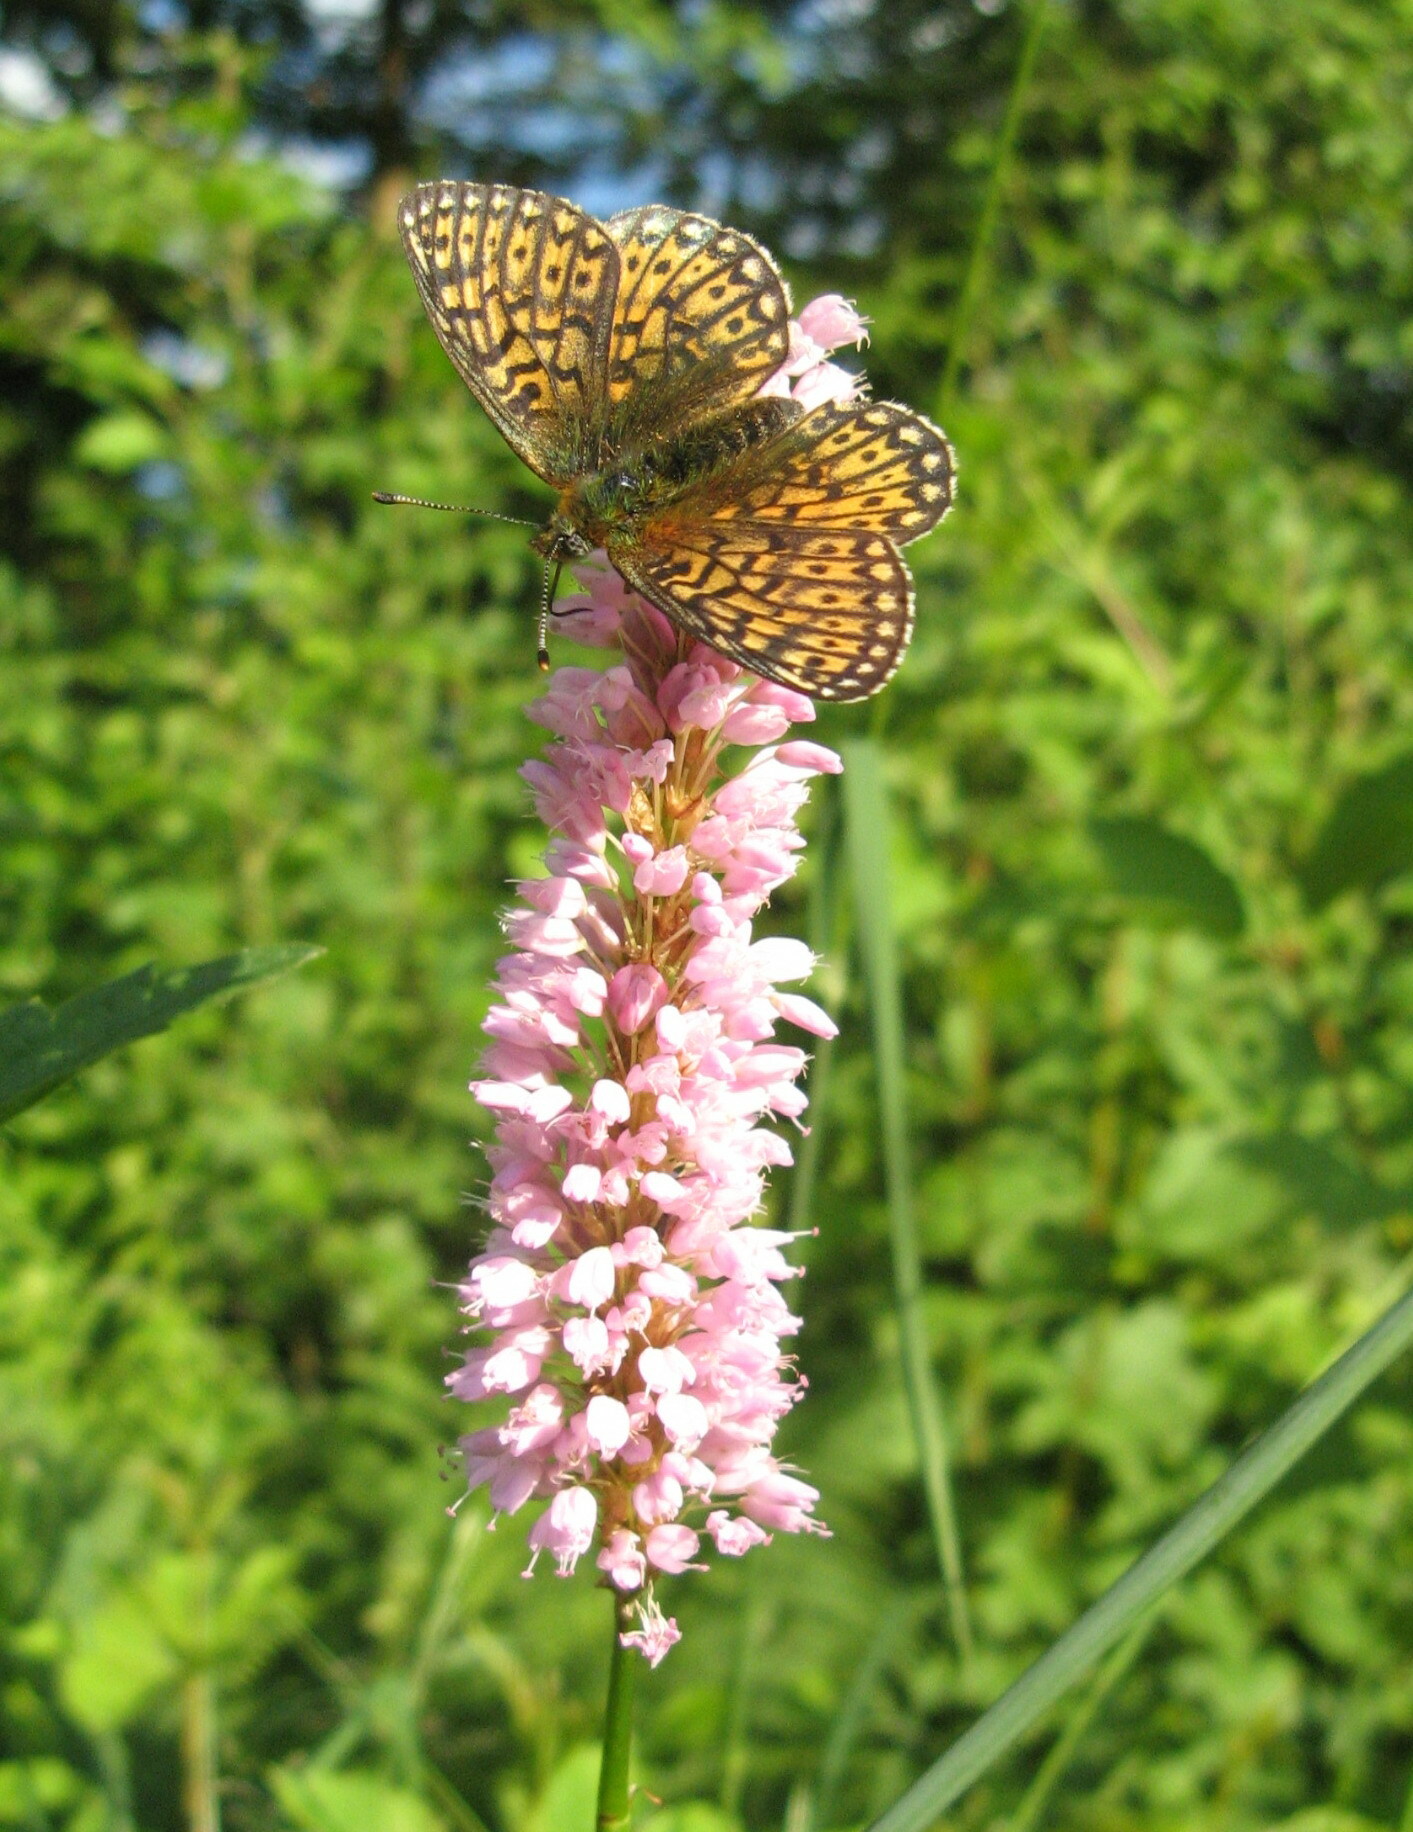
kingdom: Animalia
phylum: Arthropoda
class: Insecta
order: Lepidoptera
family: Nymphalidae
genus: Boloria
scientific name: Boloria eunomia
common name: Bog fritillary
